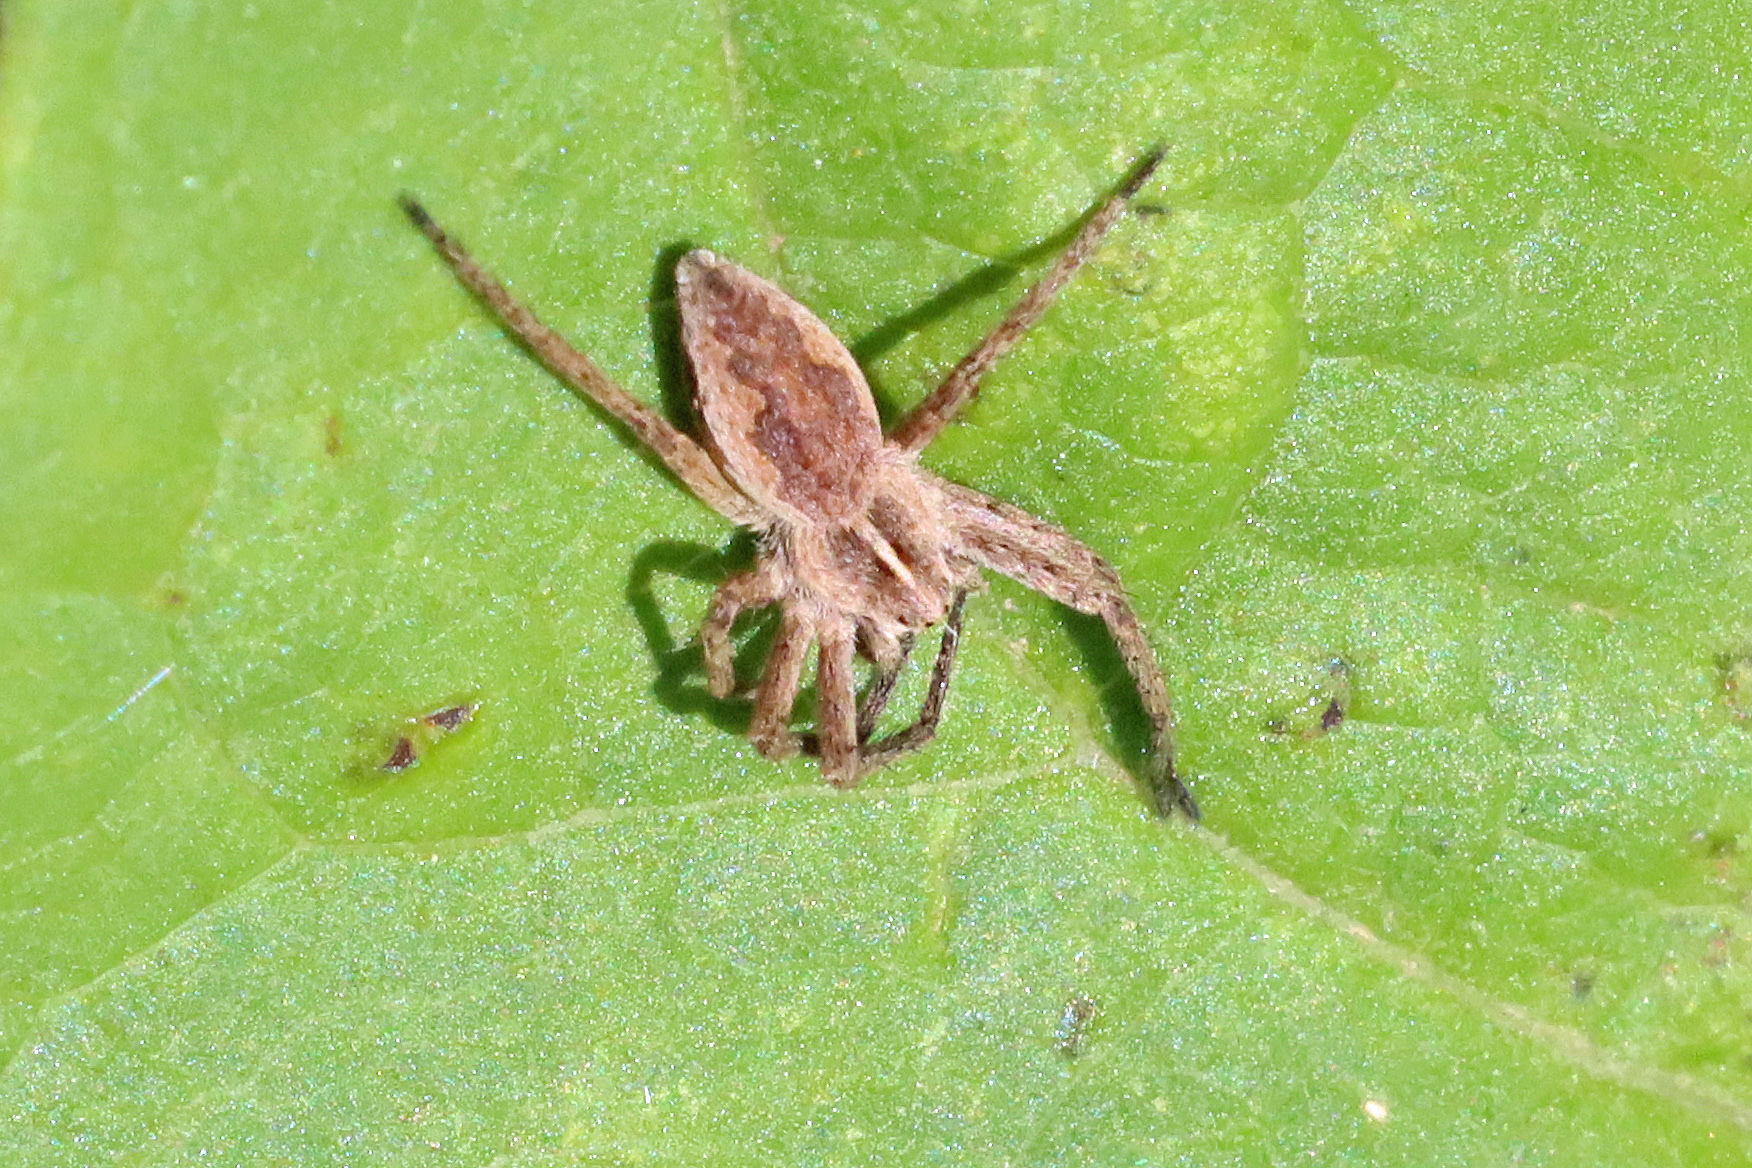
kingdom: Animalia
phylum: Arthropoda
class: Arachnida
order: Araneae
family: Pisauridae
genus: Pisaura
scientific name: Pisaura mirabilis
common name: Tent spider
